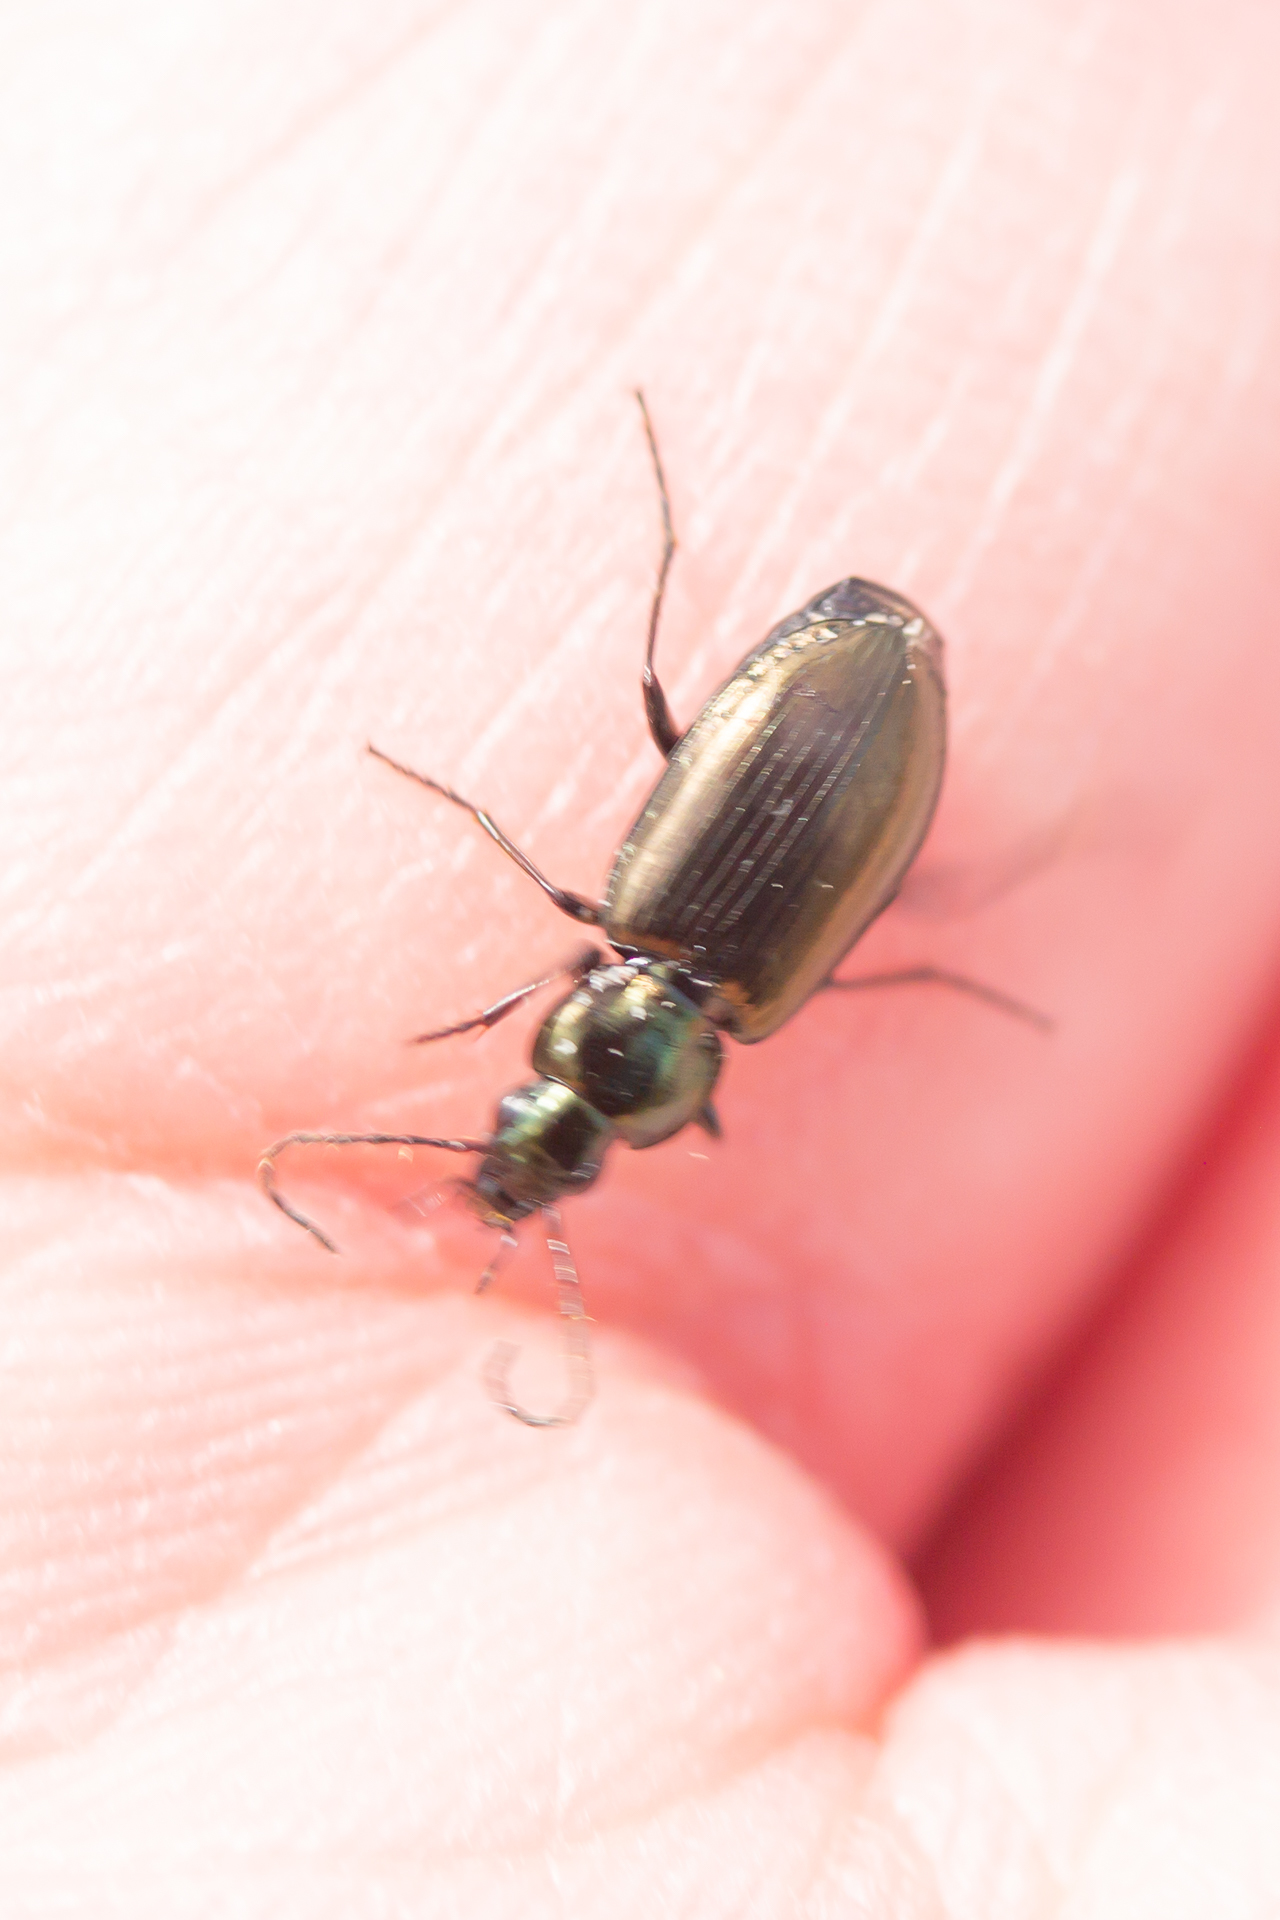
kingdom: Animalia
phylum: Arthropoda
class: Insecta
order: Coleoptera
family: Carabidae
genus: Agonum
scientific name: Agonum muelleri
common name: Müller's harp ground beetle
